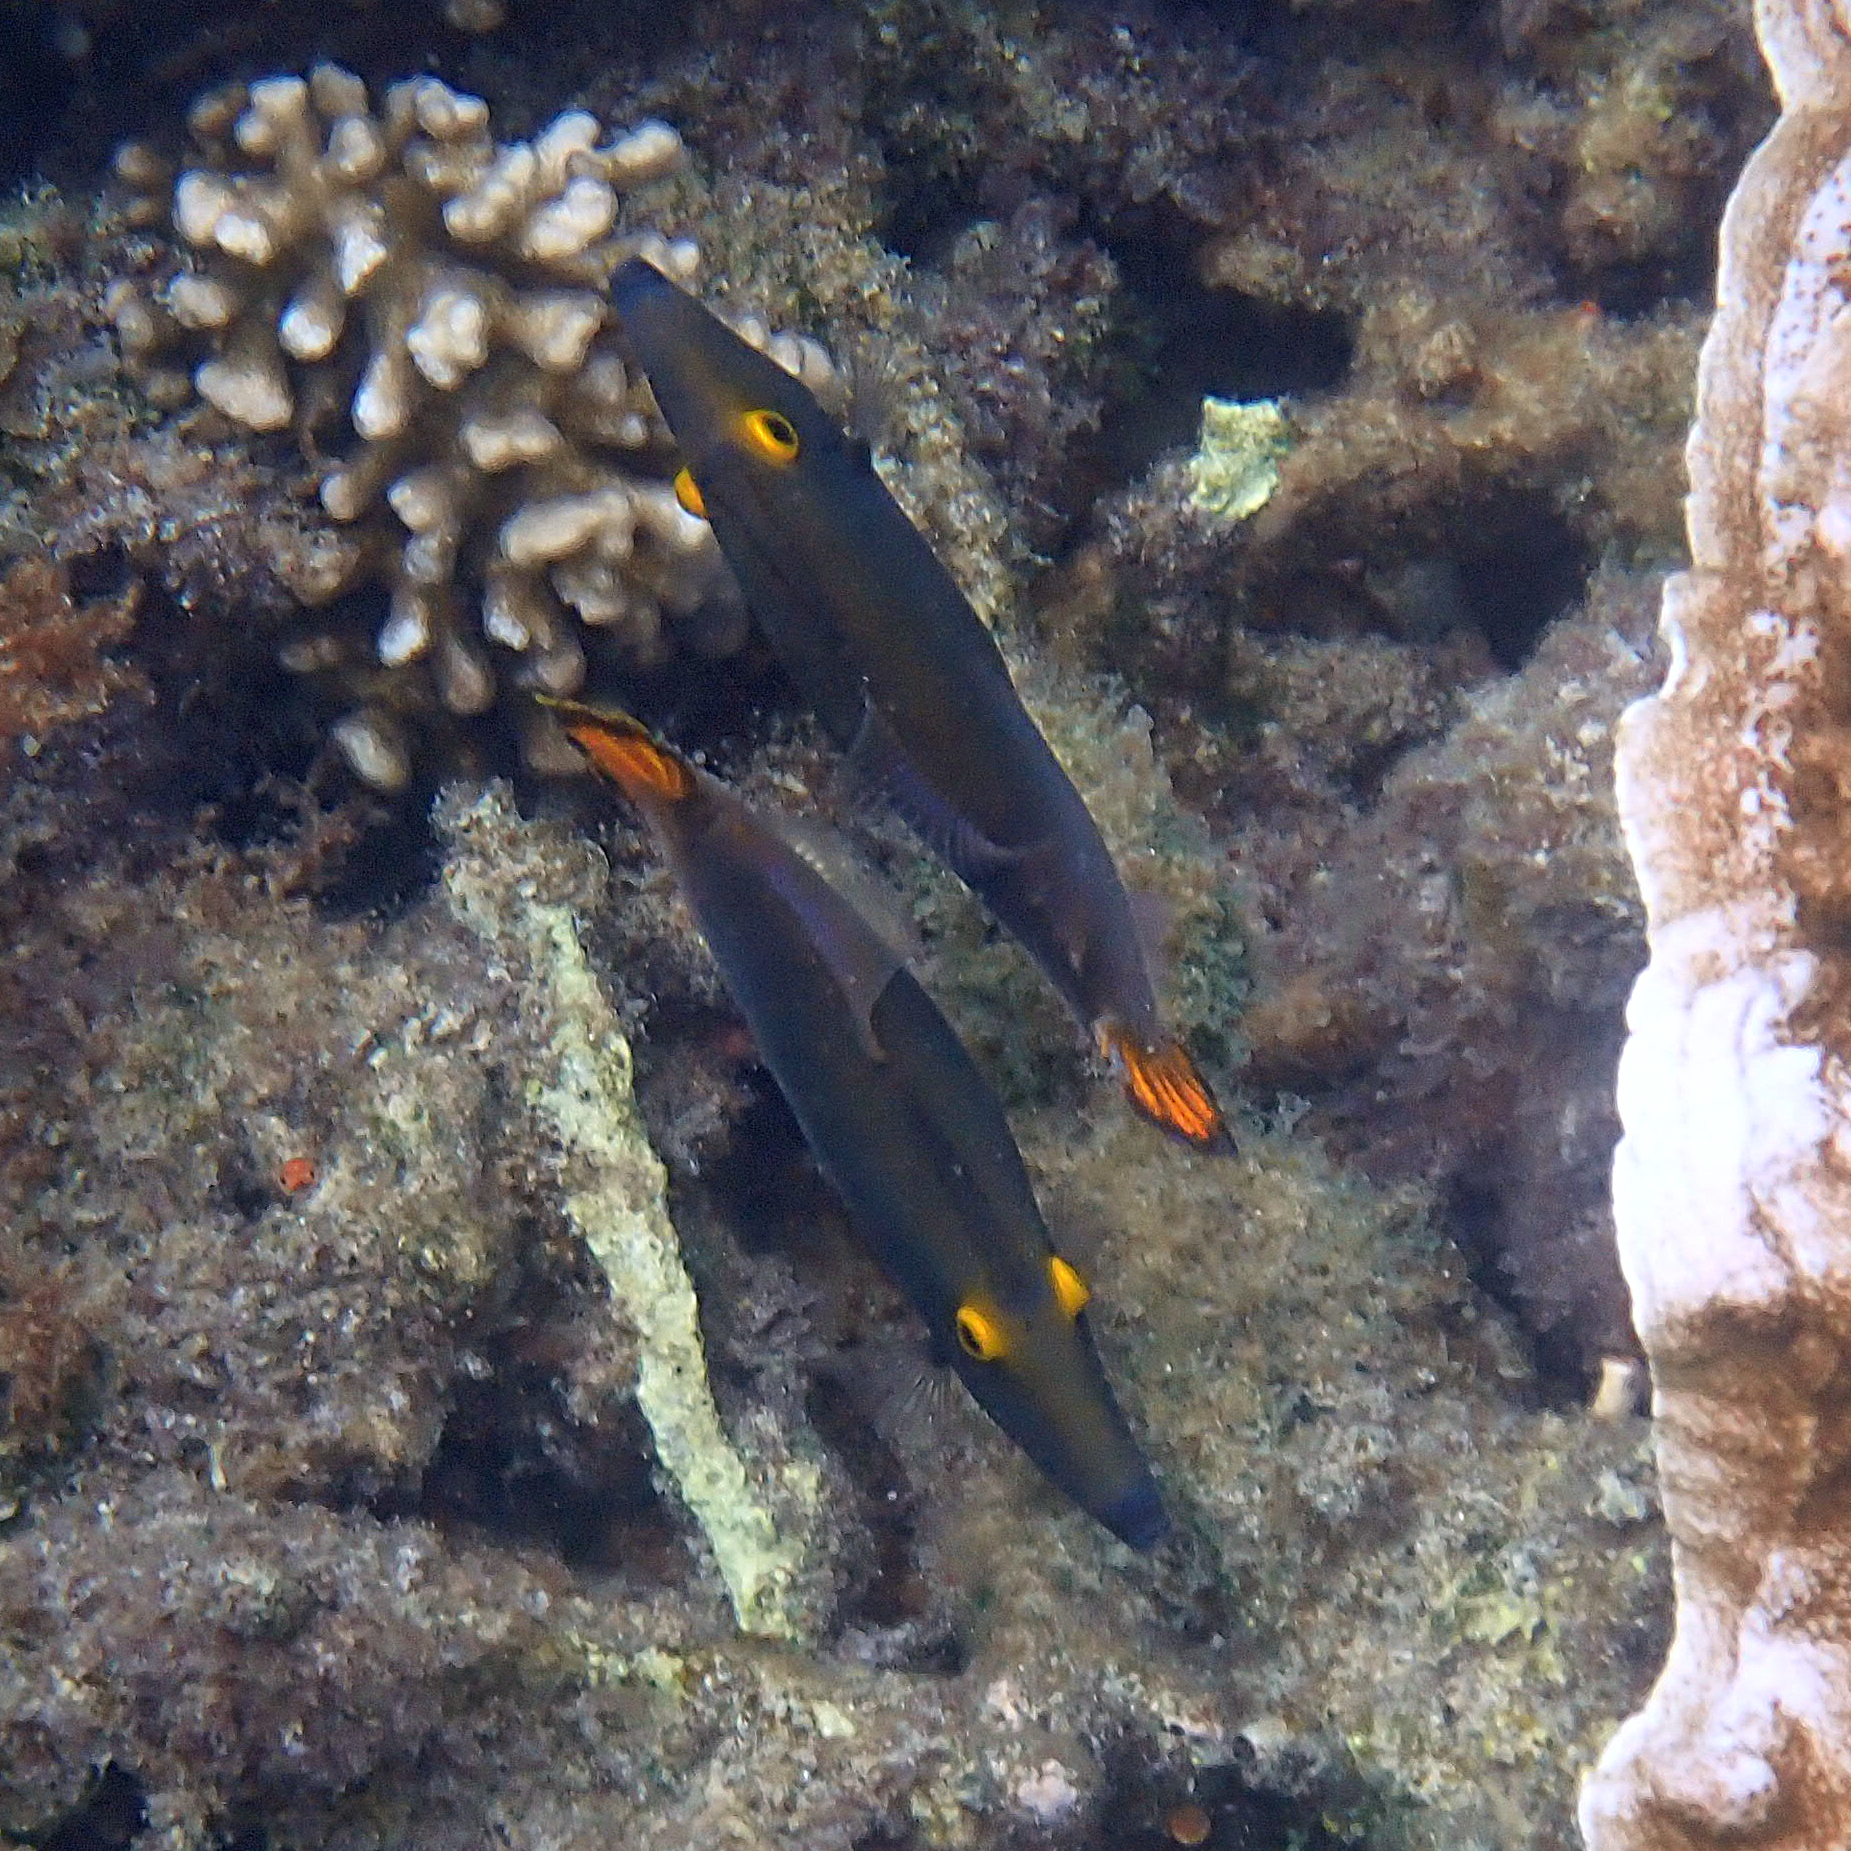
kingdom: Animalia
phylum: Chordata
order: Tetraodontiformes
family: Monacanthidae
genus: Pervagor
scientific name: Pervagor alternans
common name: Yelloweye filefish
